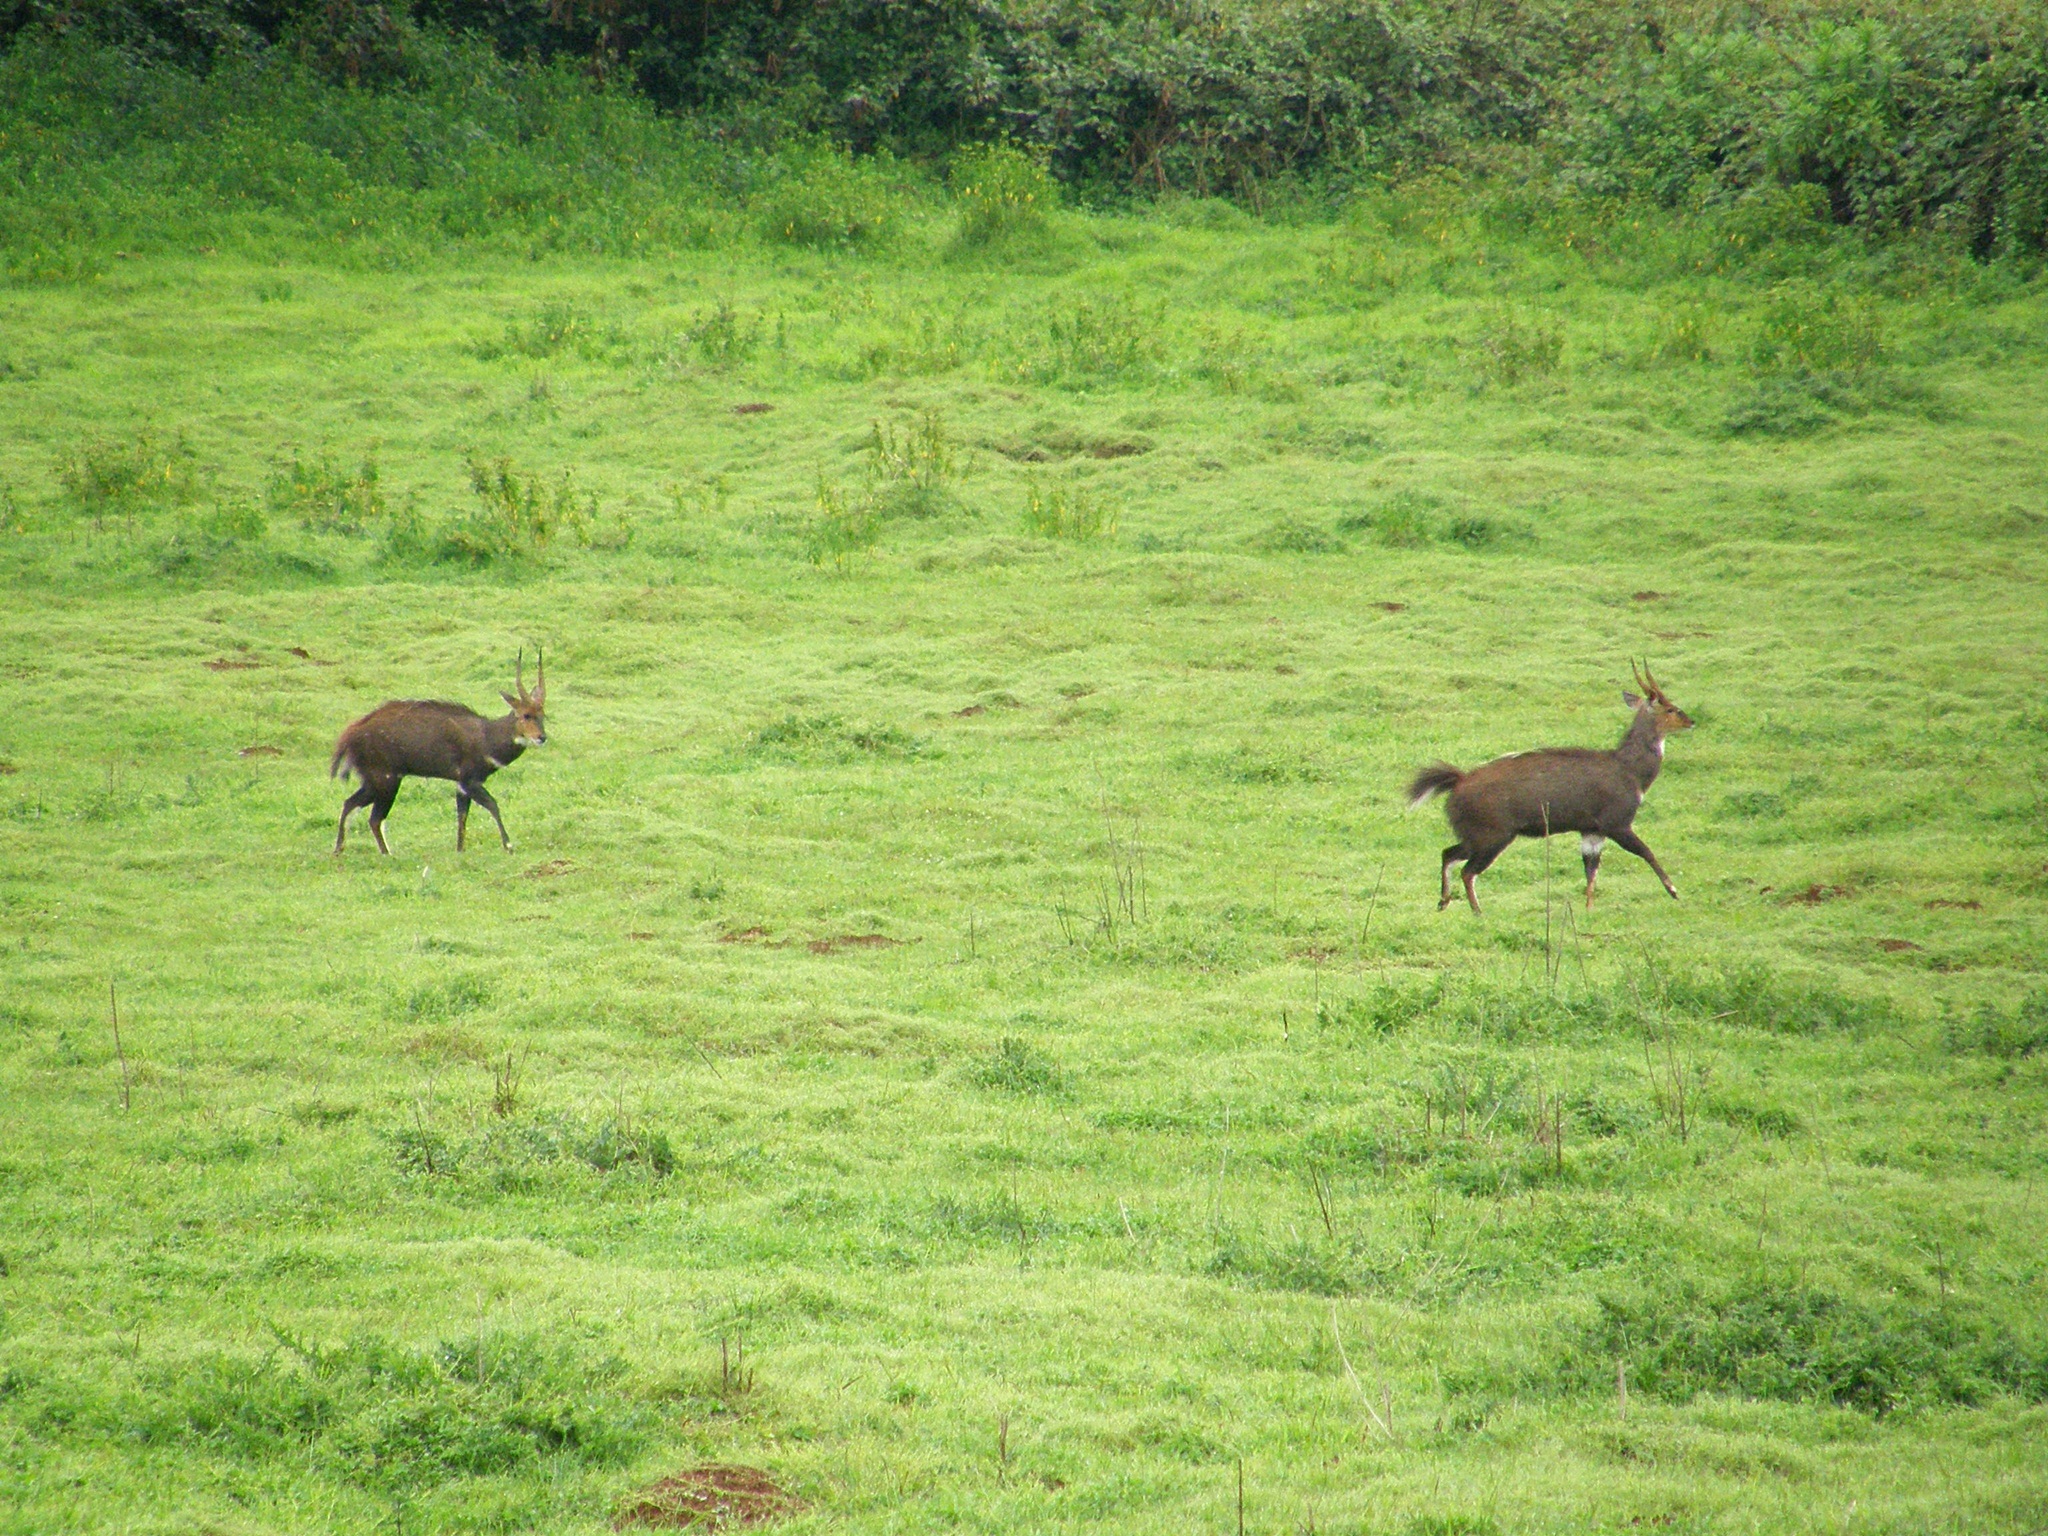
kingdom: Animalia
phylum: Chordata
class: Mammalia
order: Artiodactyla
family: Bovidae
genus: Tragelaphus
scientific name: Tragelaphus scriptus
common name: Bushbuck
